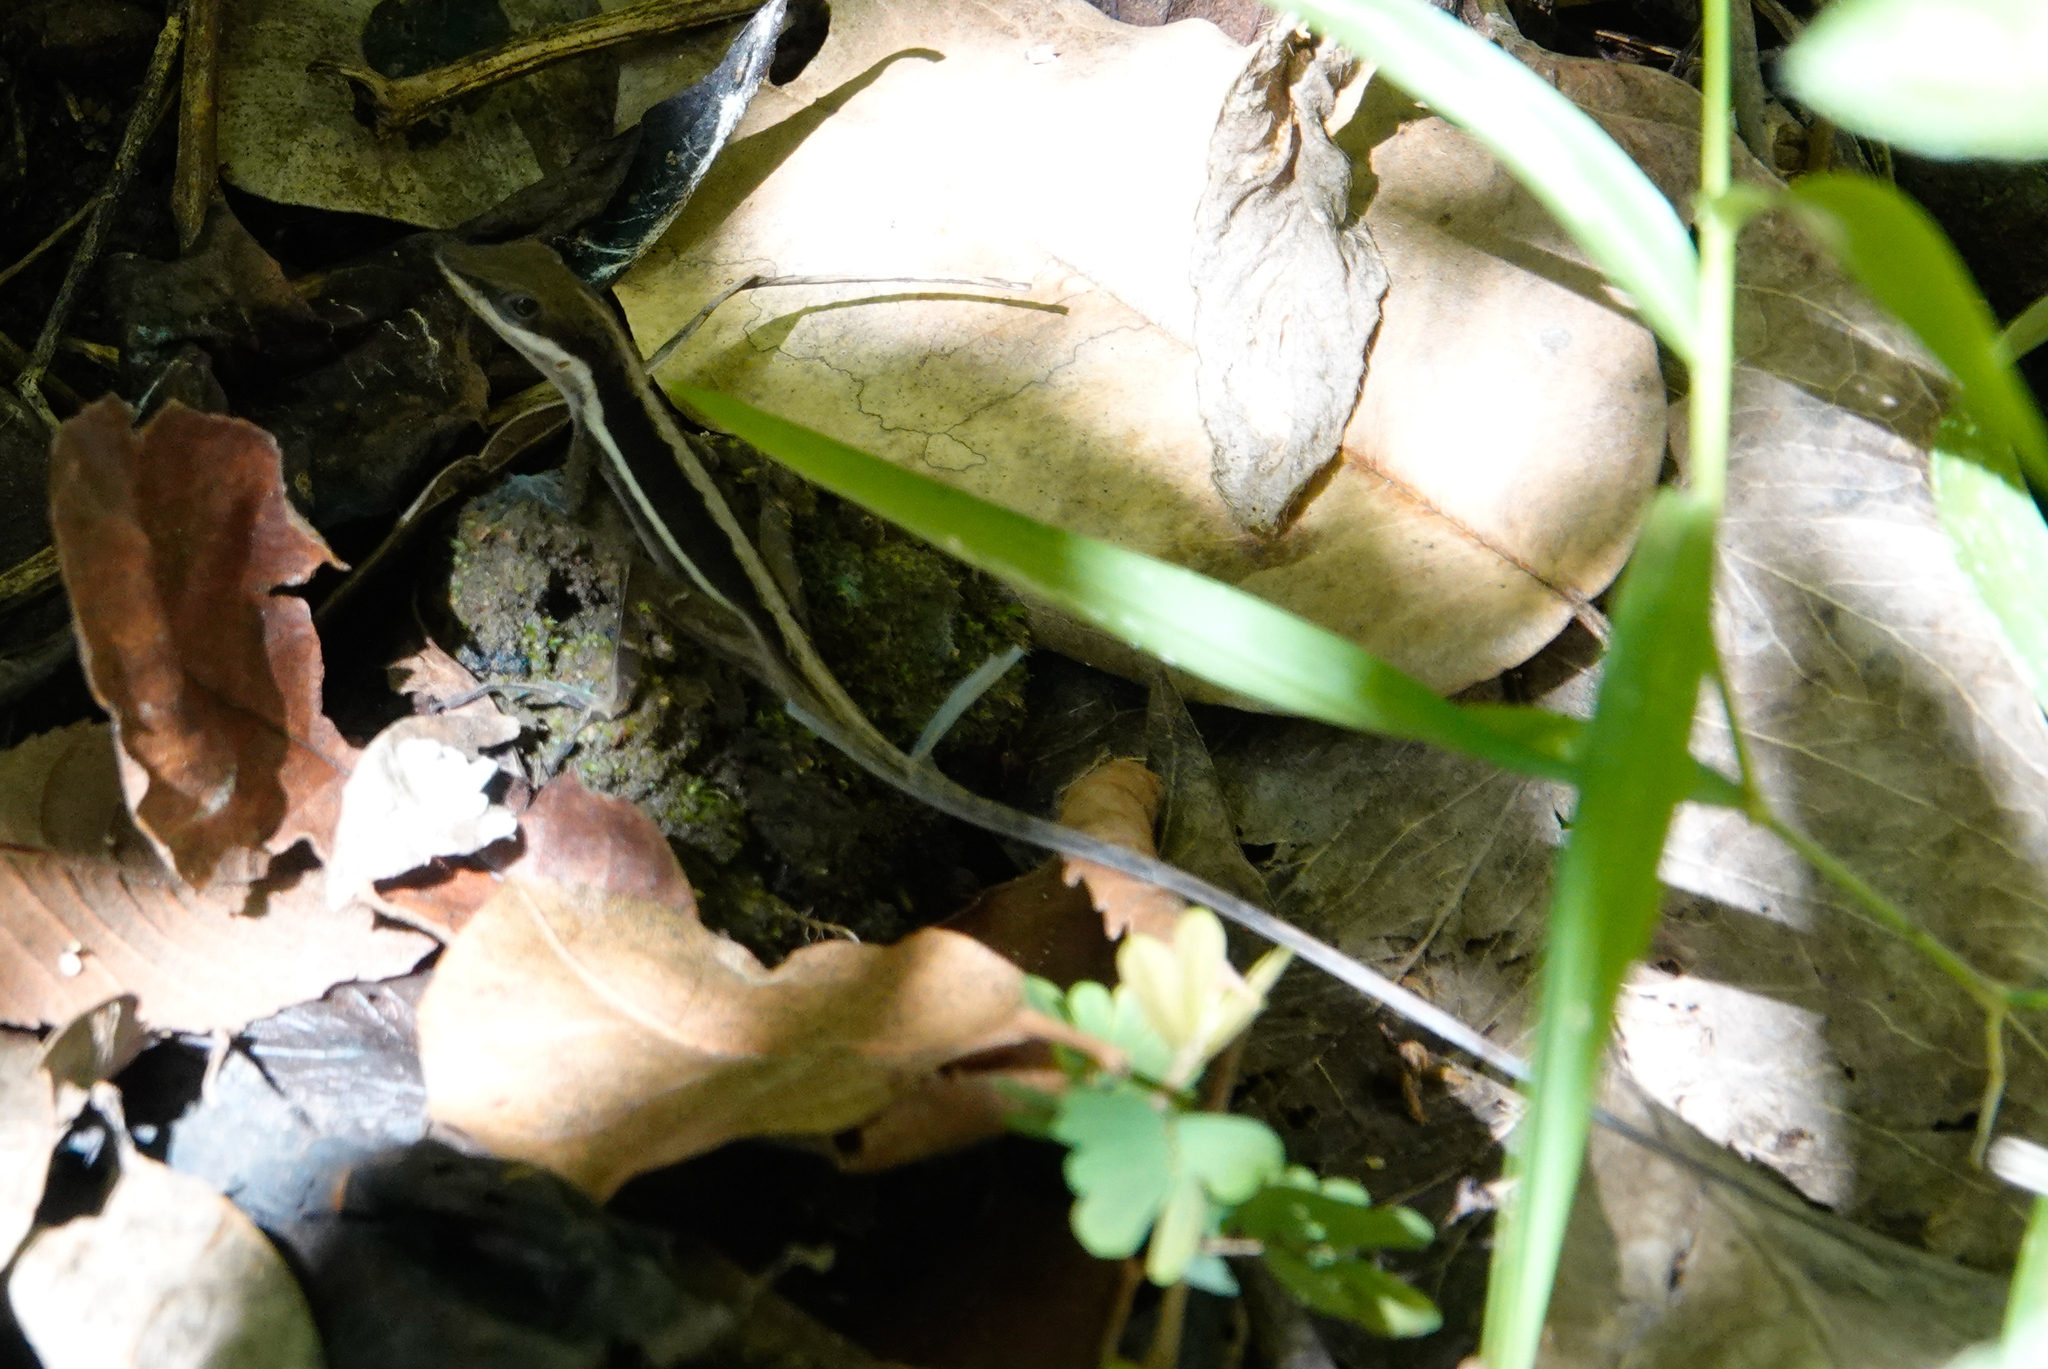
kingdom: Animalia
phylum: Chordata
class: Squamata
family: Dactyloidae
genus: Anolis
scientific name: Anolis krugi
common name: Krug's anole
